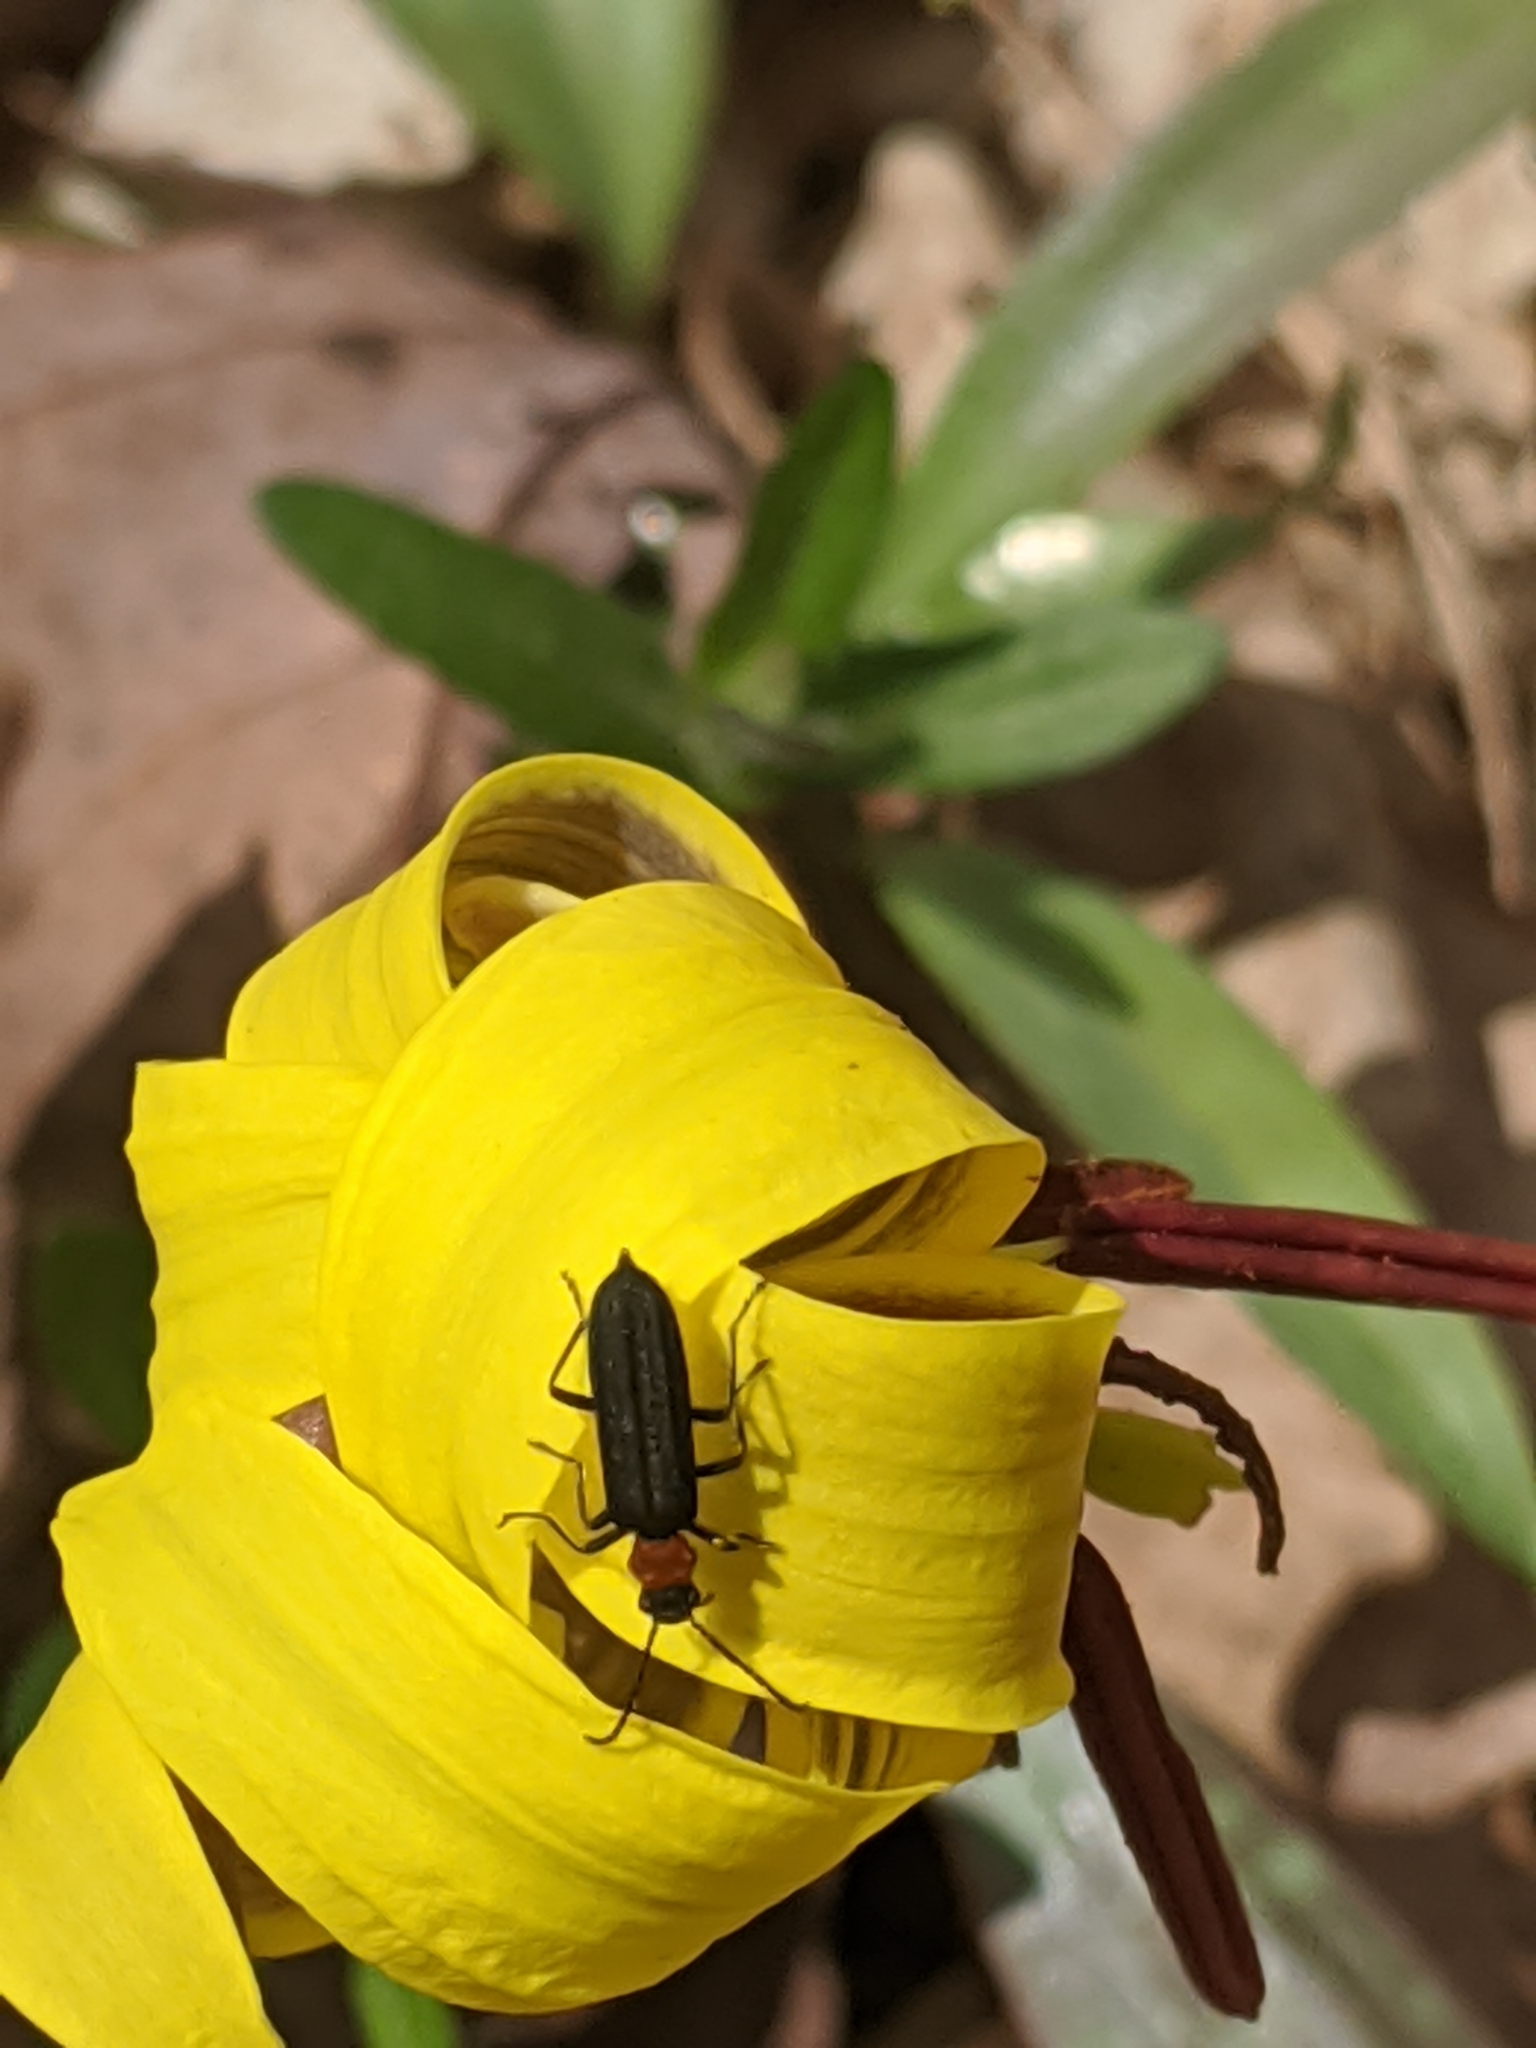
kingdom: Animalia
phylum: Arthropoda
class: Insecta
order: Coleoptera
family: Oedemeridae
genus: Ischnomera
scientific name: Ischnomera
